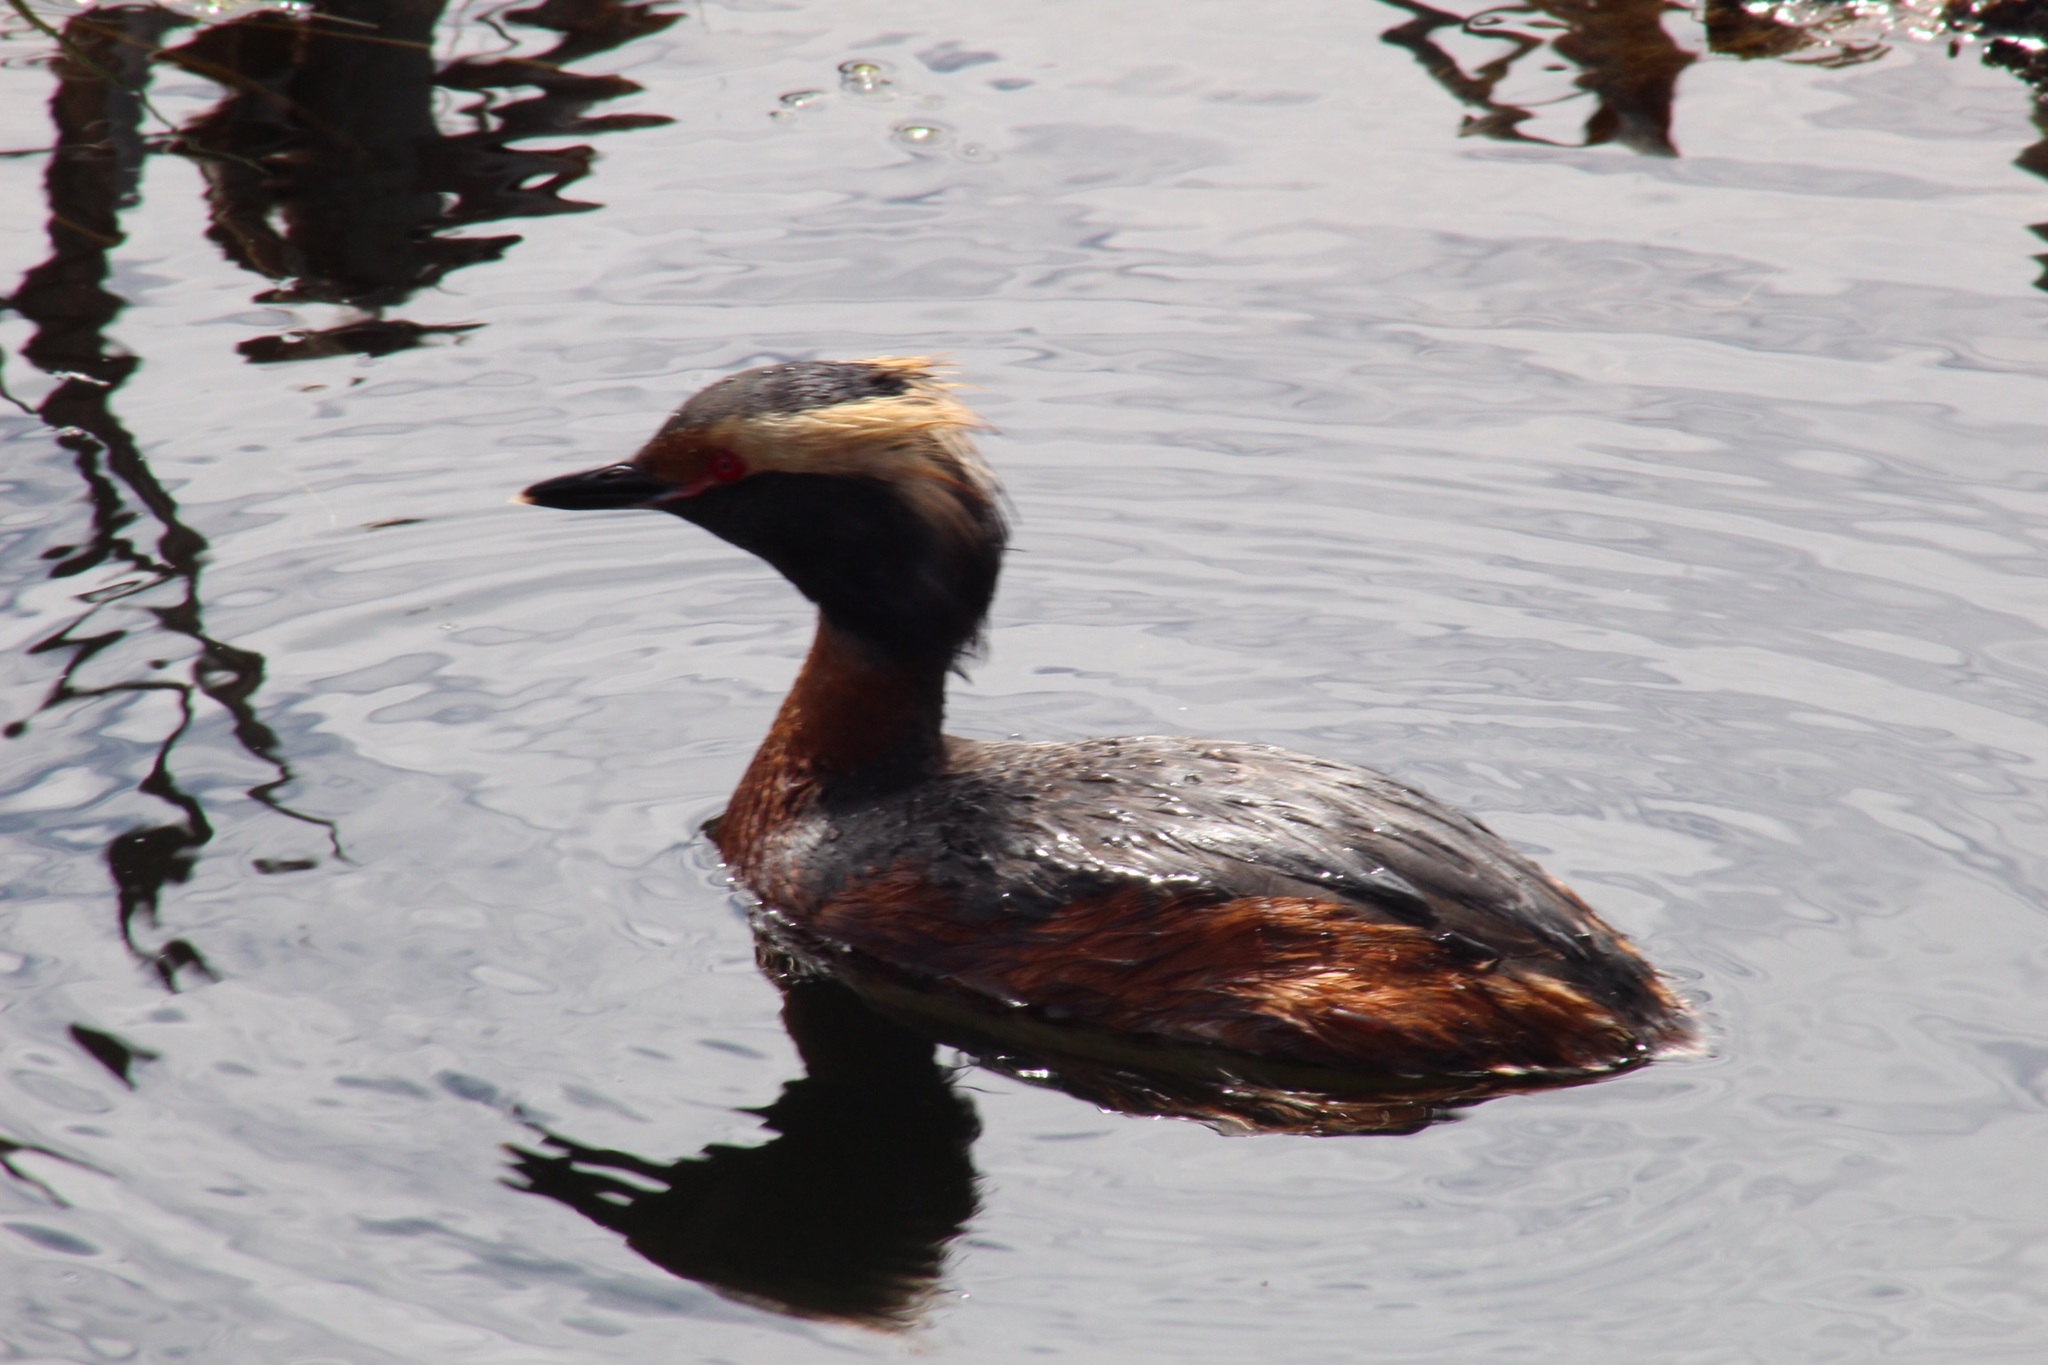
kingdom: Animalia
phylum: Chordata
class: Aves
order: Podicipediformes
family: Podicipedidae
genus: Podiceps
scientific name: Podiceps auritus
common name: Horned grebe
